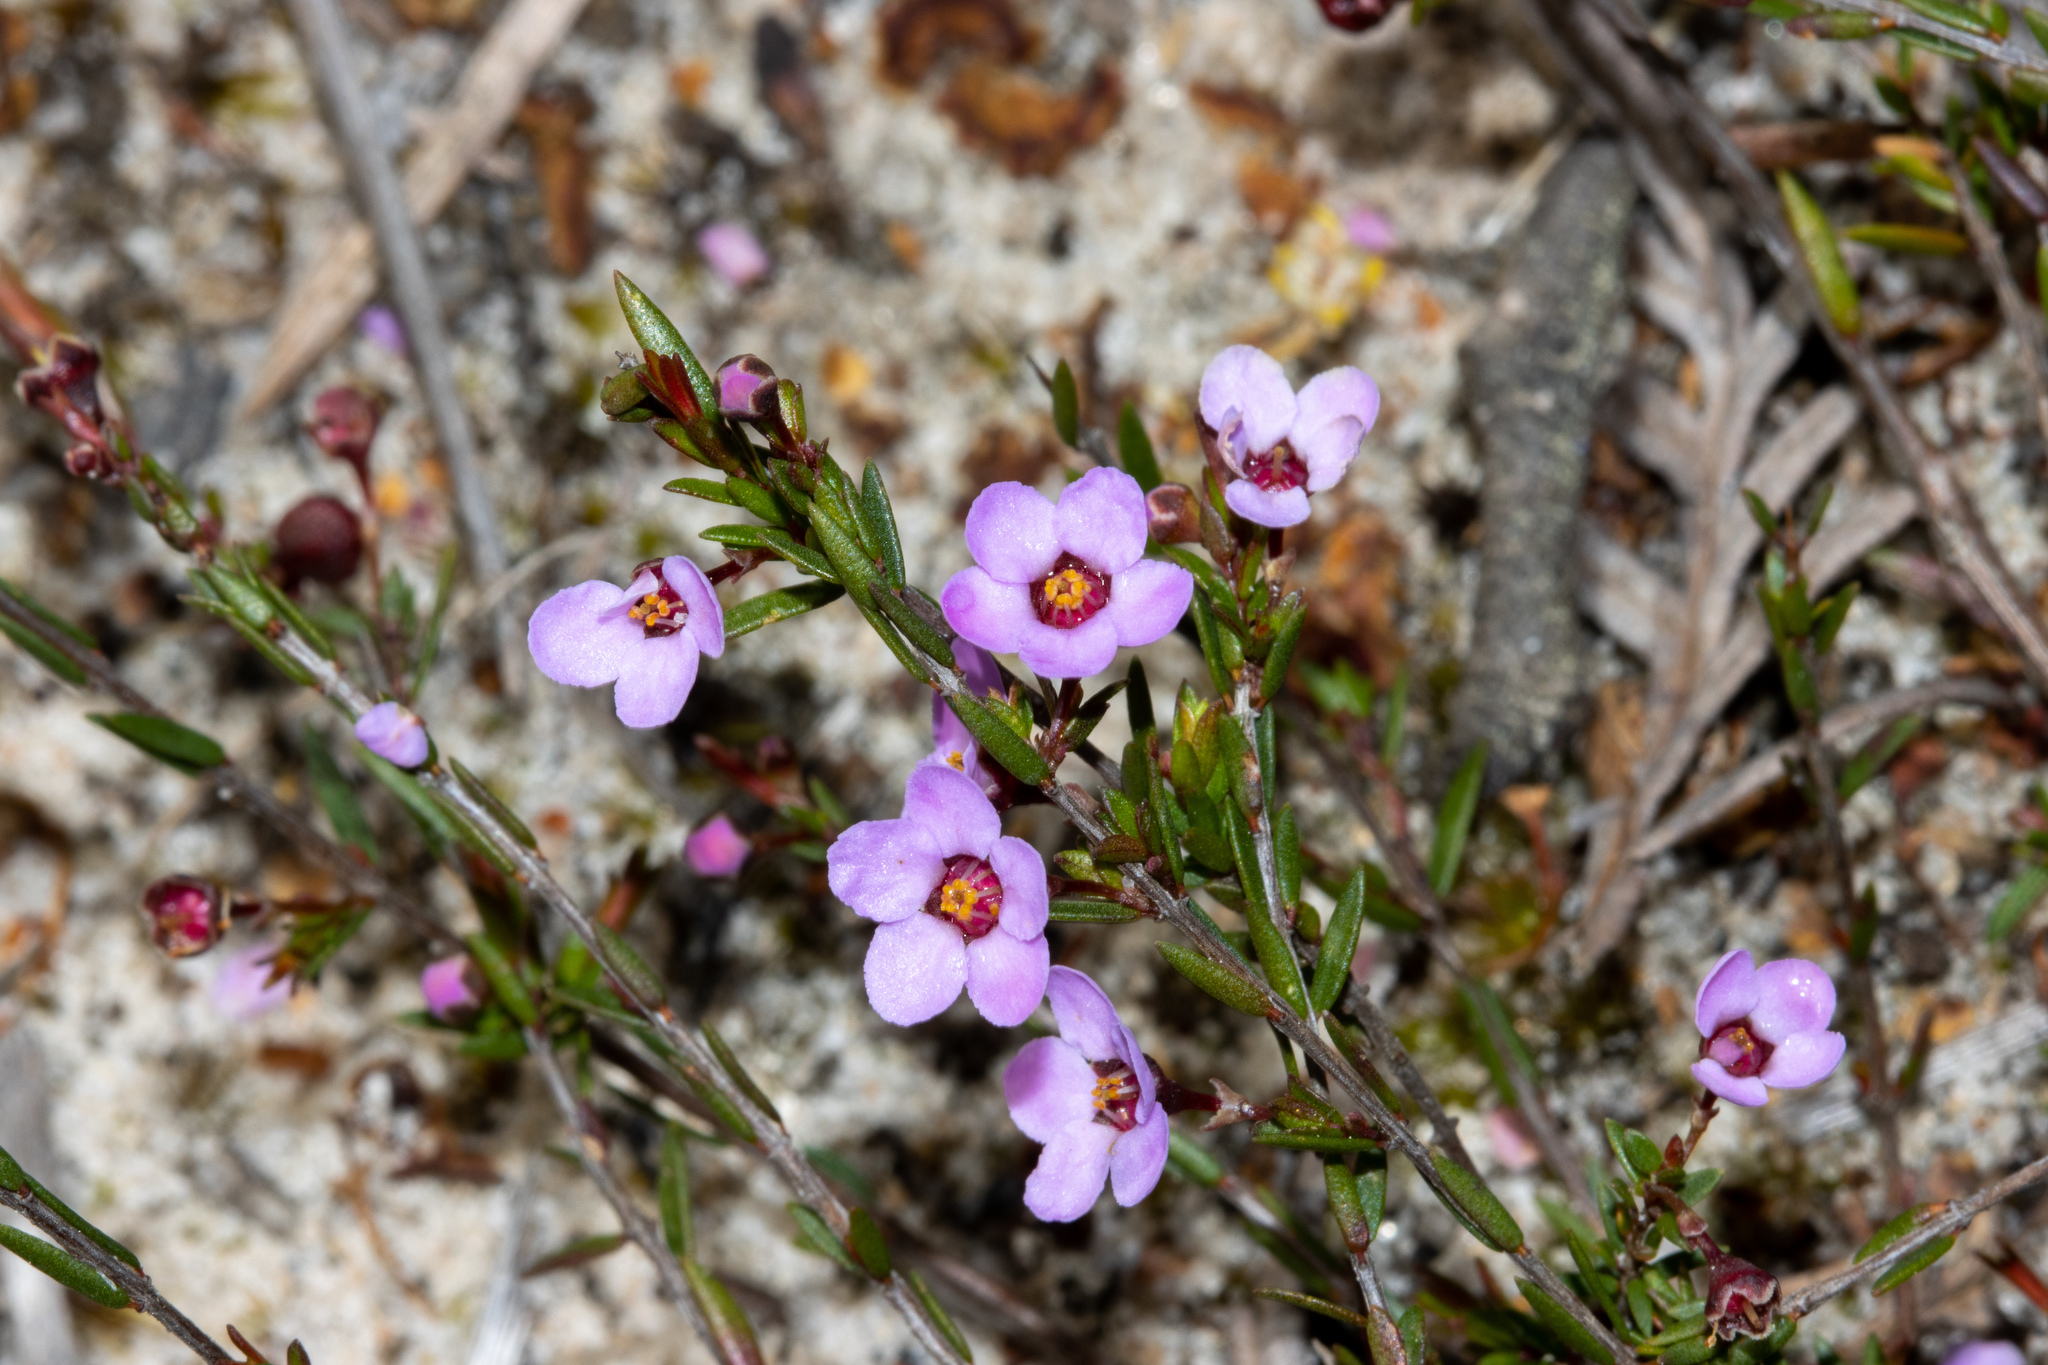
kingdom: Plantae
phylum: Tracheophyta
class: Magnoliopsida
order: Myrtales
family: Myrtaceae
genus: Euryomyrtus
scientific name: Euryomyrtus ramosissima
